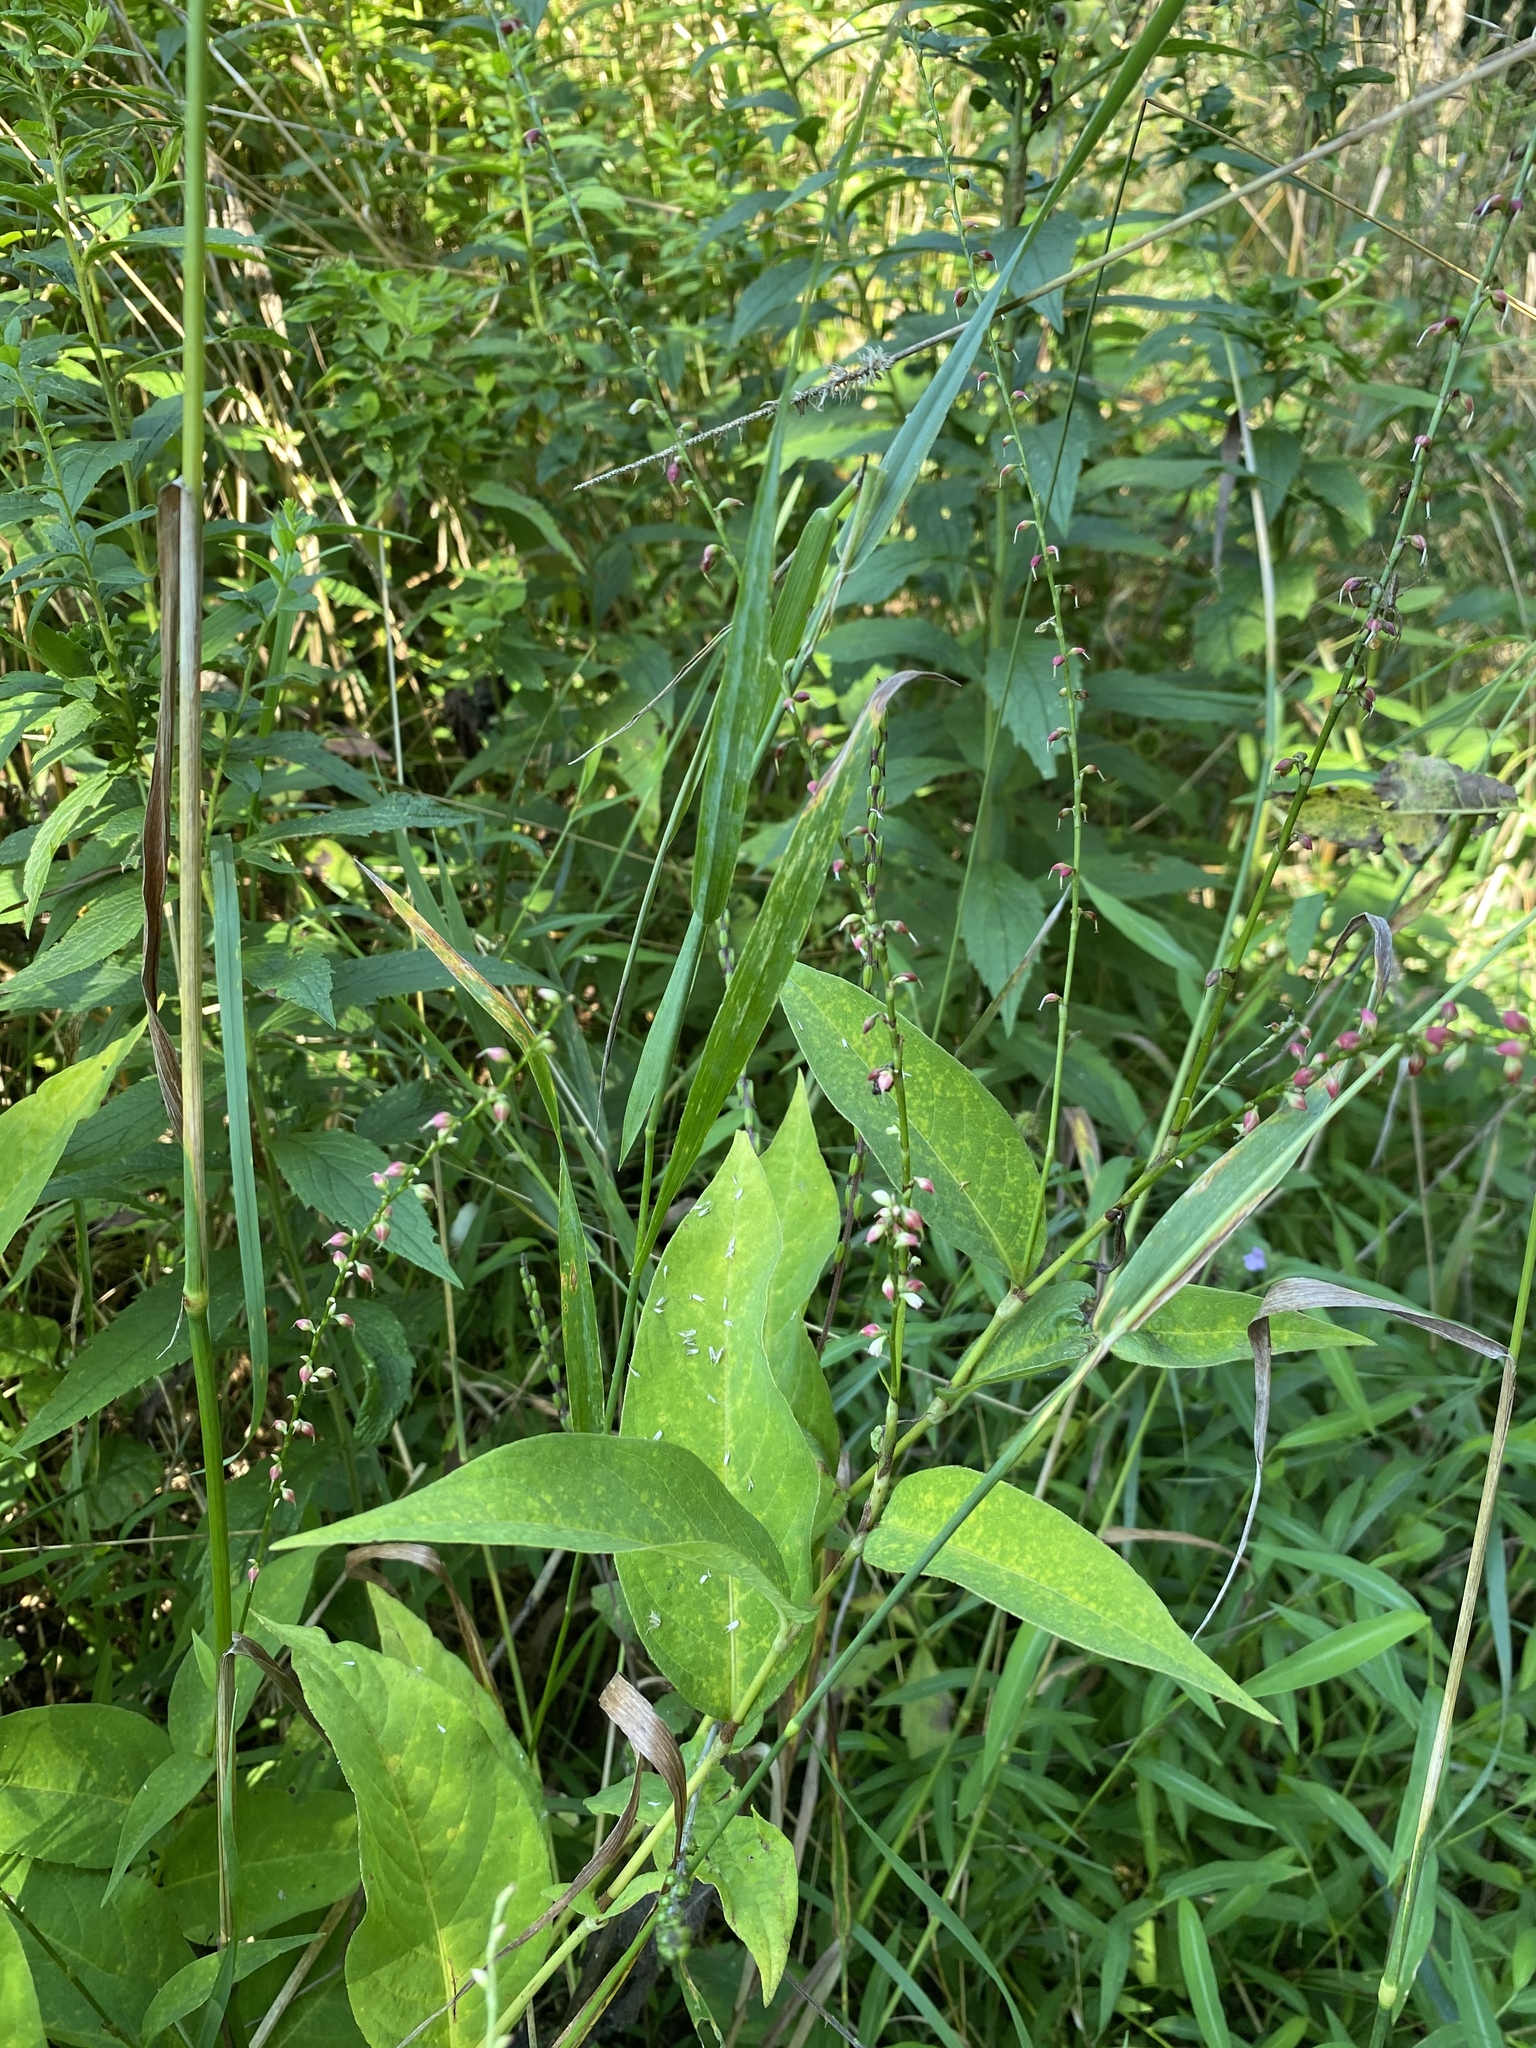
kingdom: Plantae
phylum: Tracheophyta
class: Magnoliopsida
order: Caryophyllales
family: Polygonaceae
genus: Persicaria
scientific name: Persicaria virginiana
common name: Jumpseed
